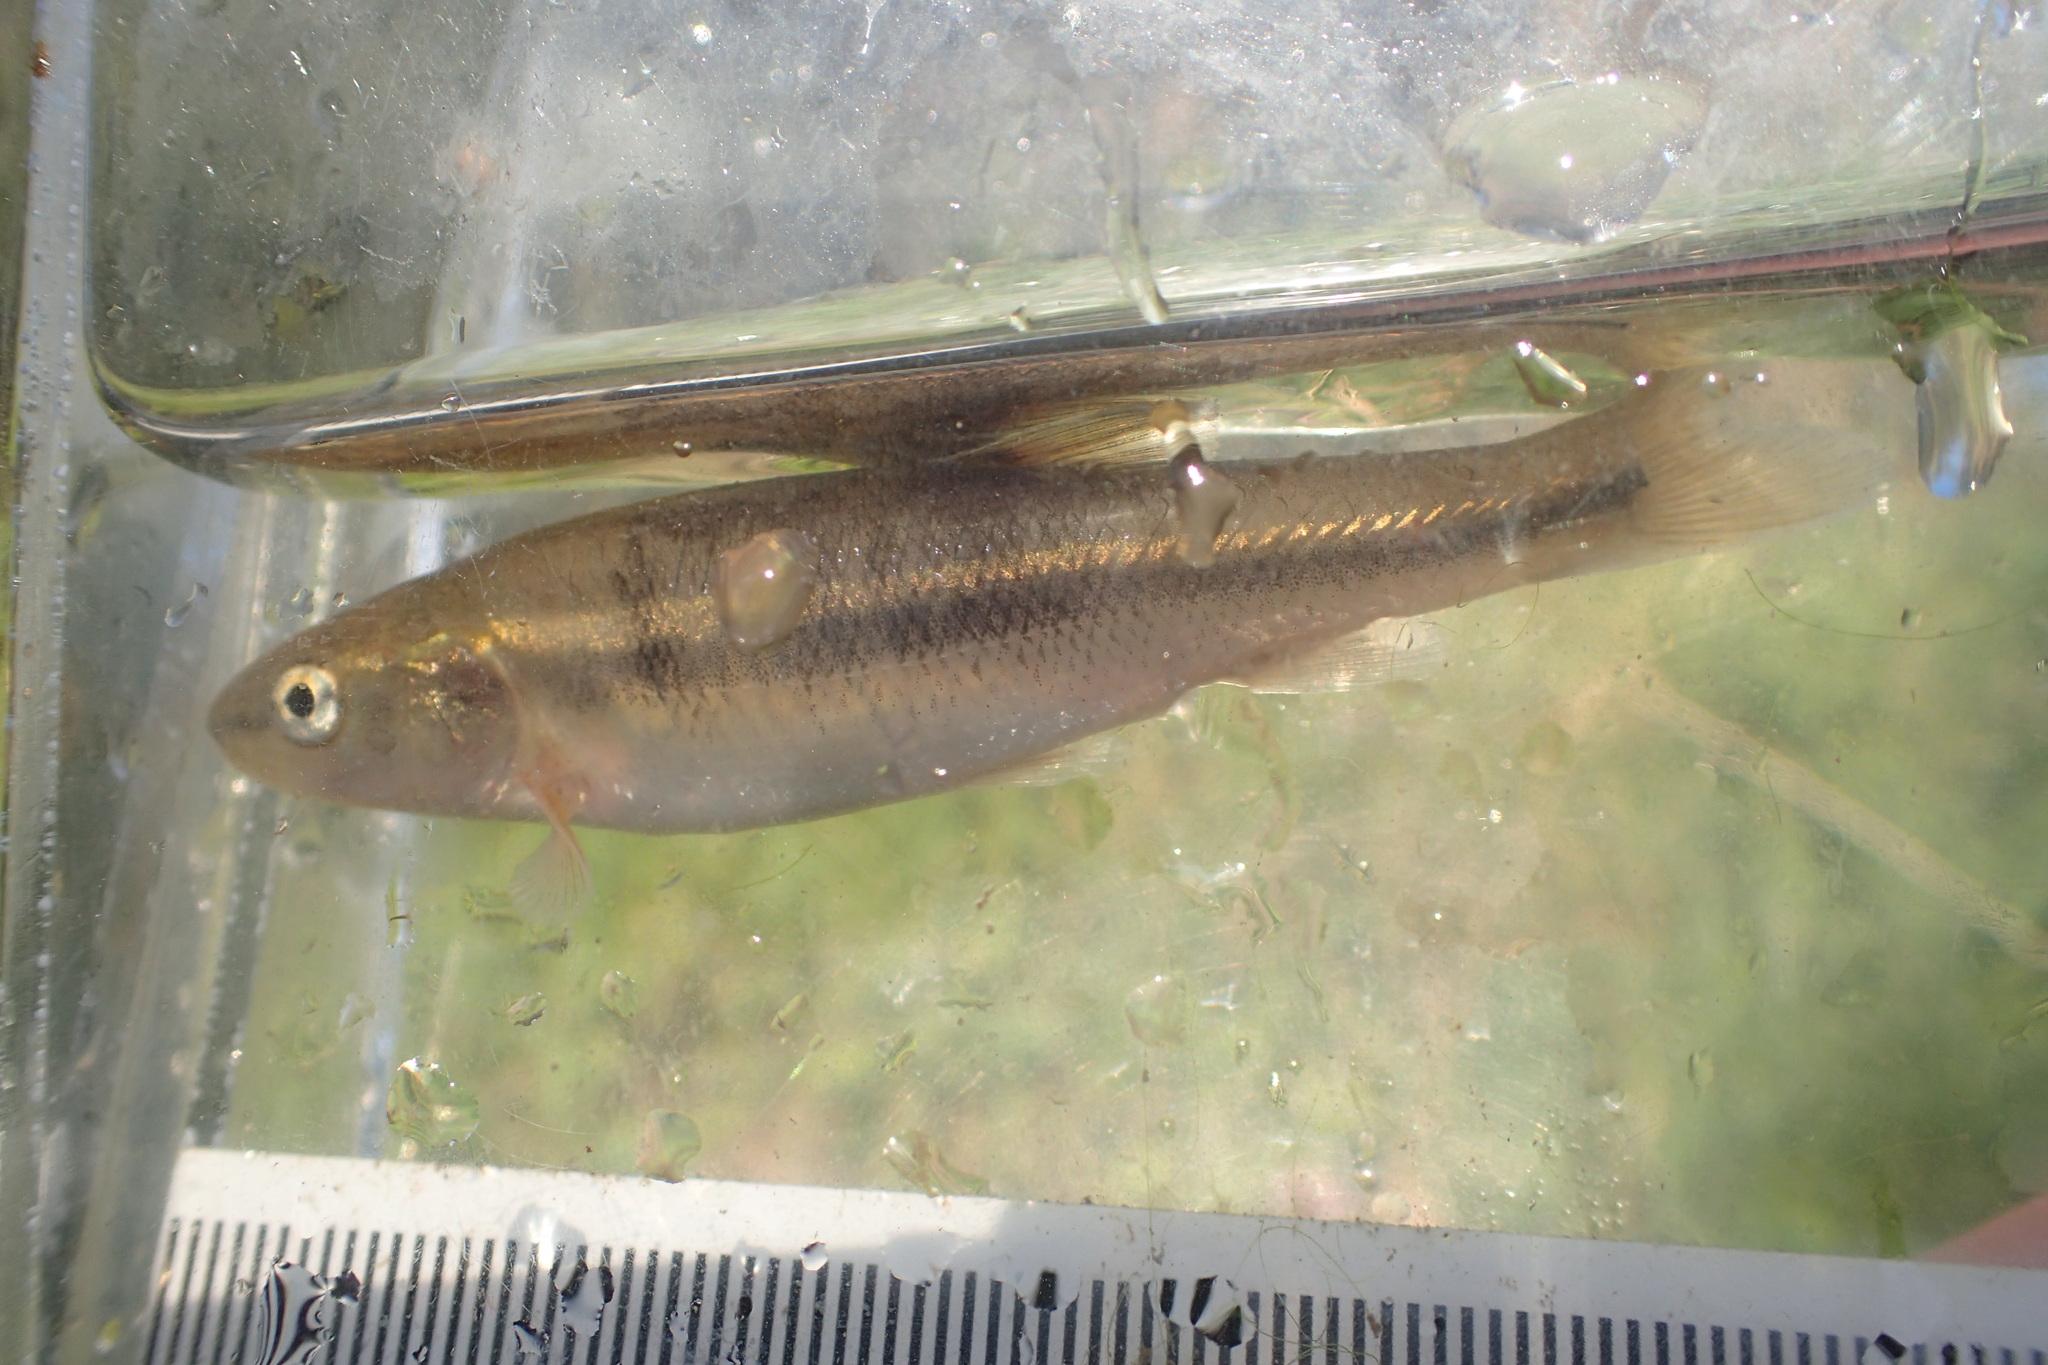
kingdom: Animalia
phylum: Chordata
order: Cypriniformes
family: Cyprinidae
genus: Semotilus
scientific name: Semotilus atromaculatus
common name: Creek chub
